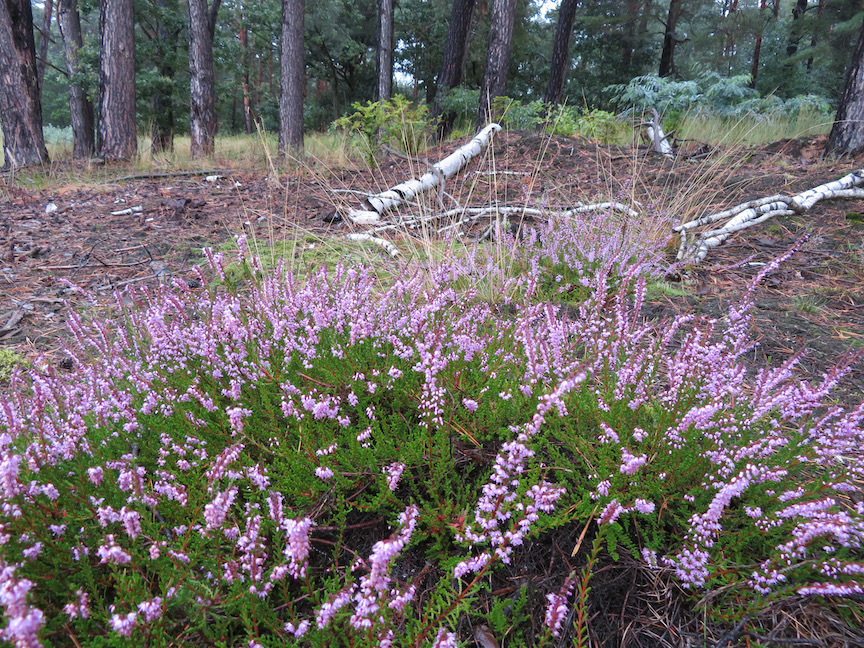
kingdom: Plantae
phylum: Tracheophyta
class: Magnoliopsida
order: Ericales
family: Ericaceae
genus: Calluna
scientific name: Calluna vulgaris
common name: Heather
